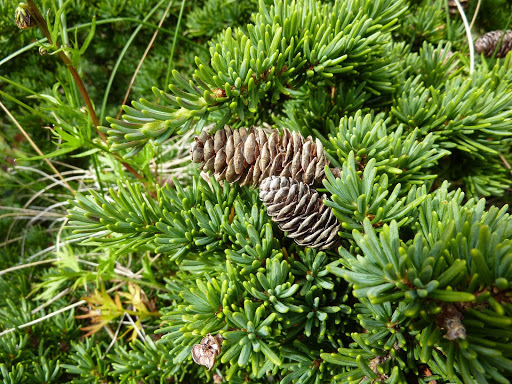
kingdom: Plantae
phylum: Tracheophyta
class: Pinopsida
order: Pinales
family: Pinaceae
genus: Tsuga
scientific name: Tsuga mertensiana
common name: Mountain hemlock
